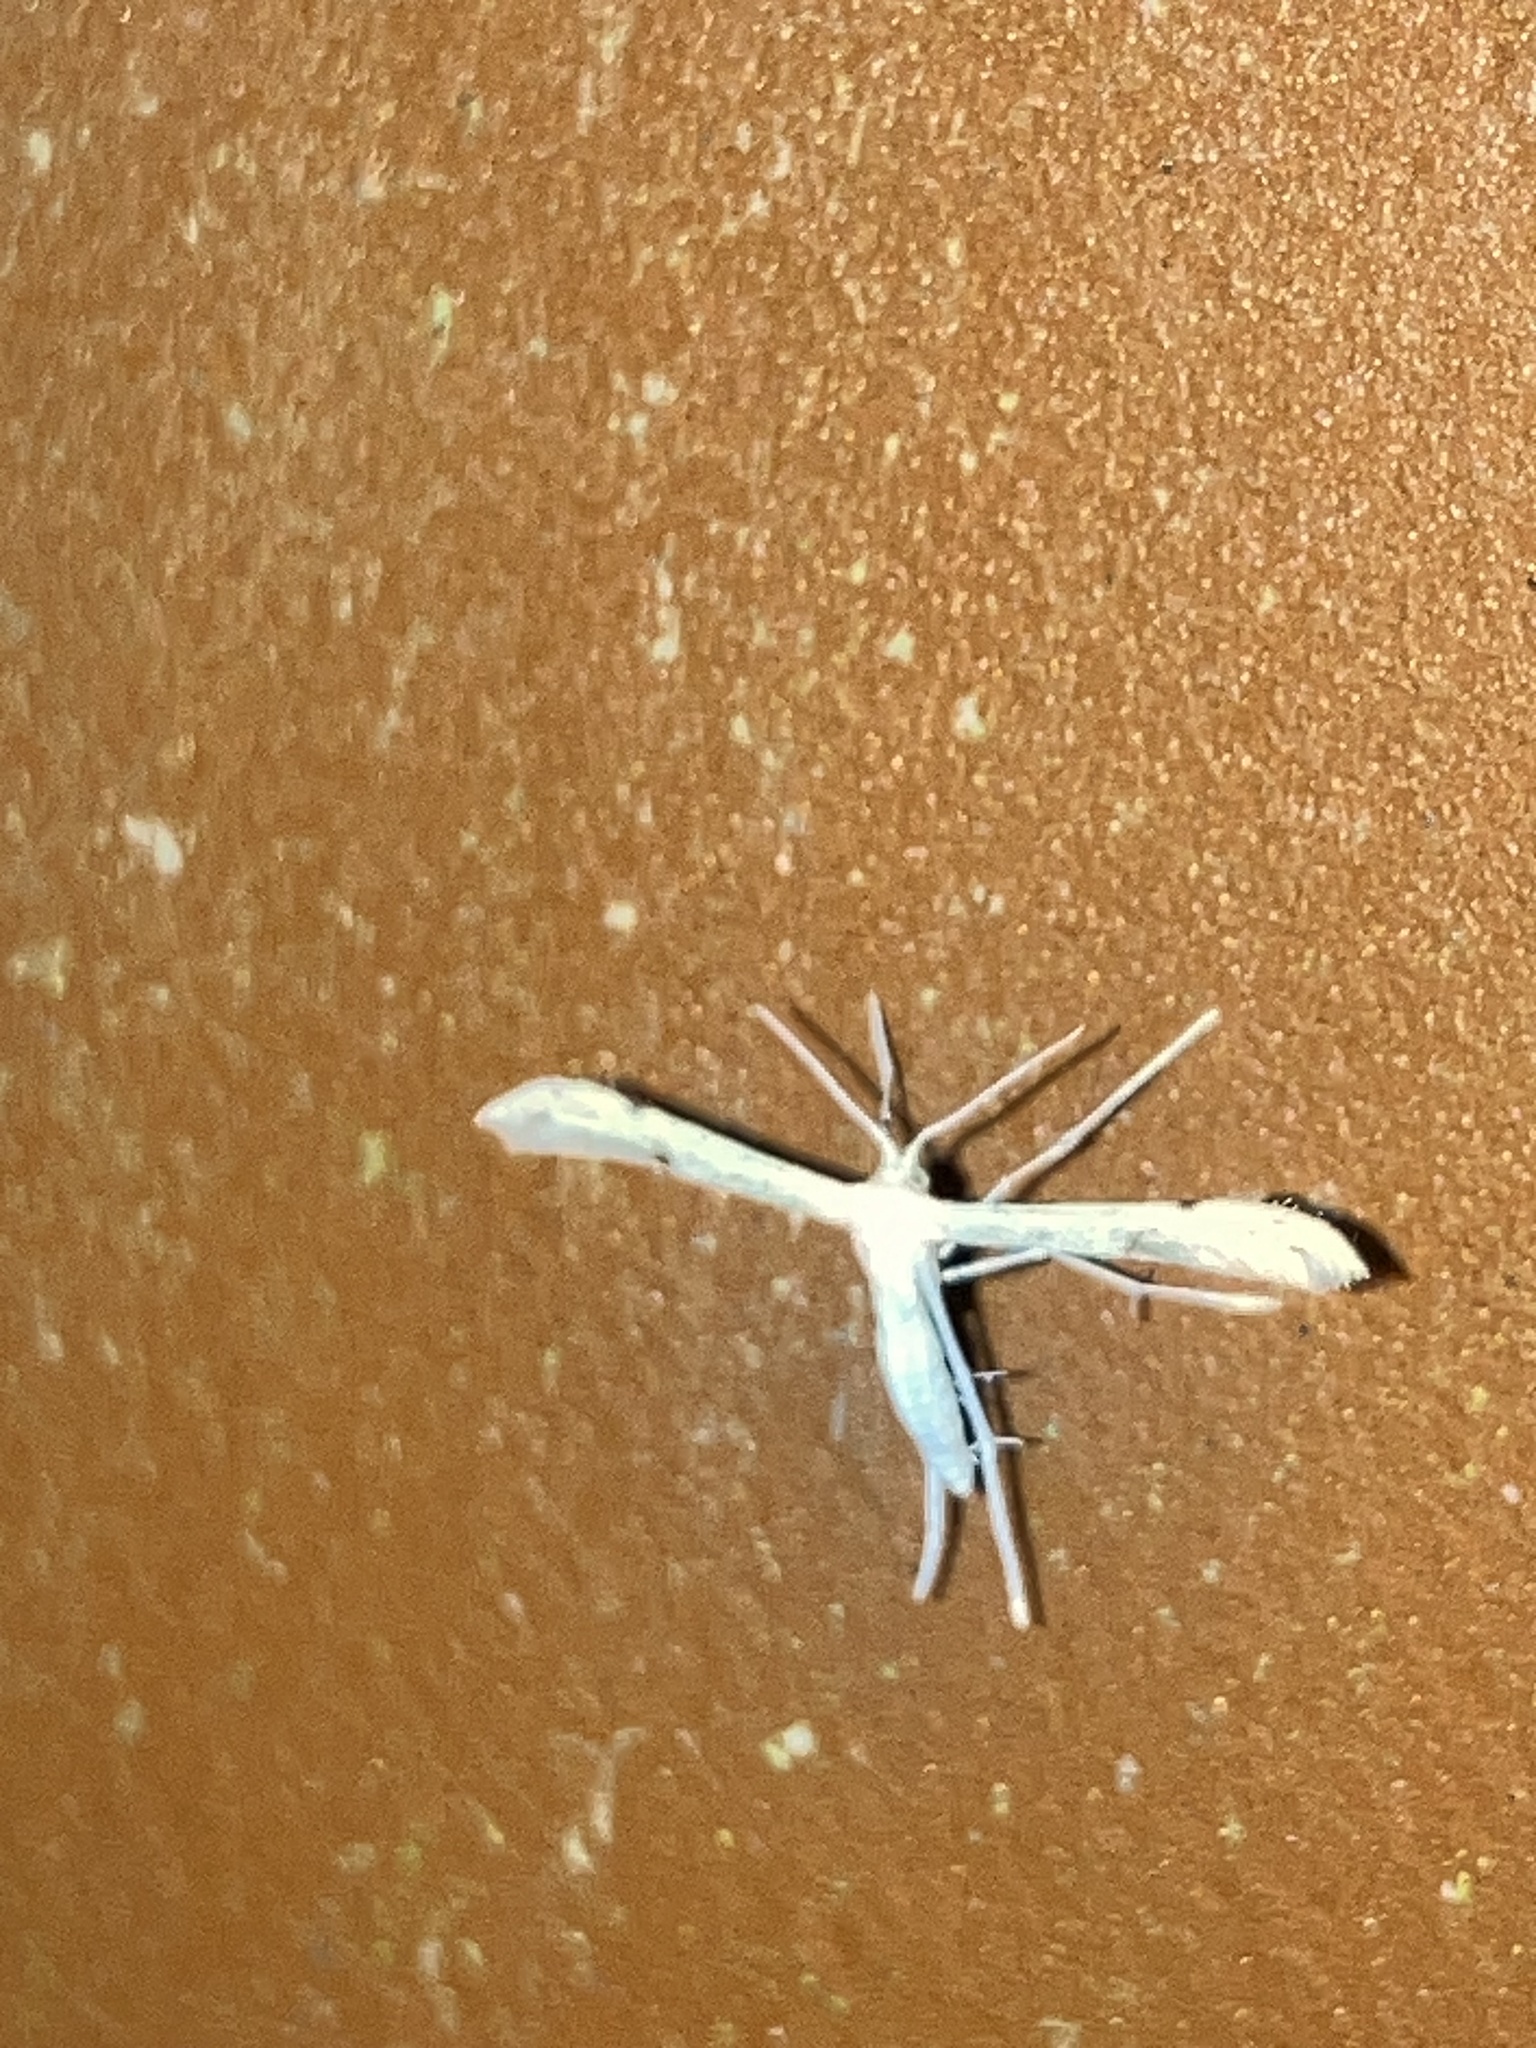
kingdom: Animalia
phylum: Arthropoda
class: Insecta
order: Lepidoptera
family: Pterophoridae
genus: Adaina
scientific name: Adaina
